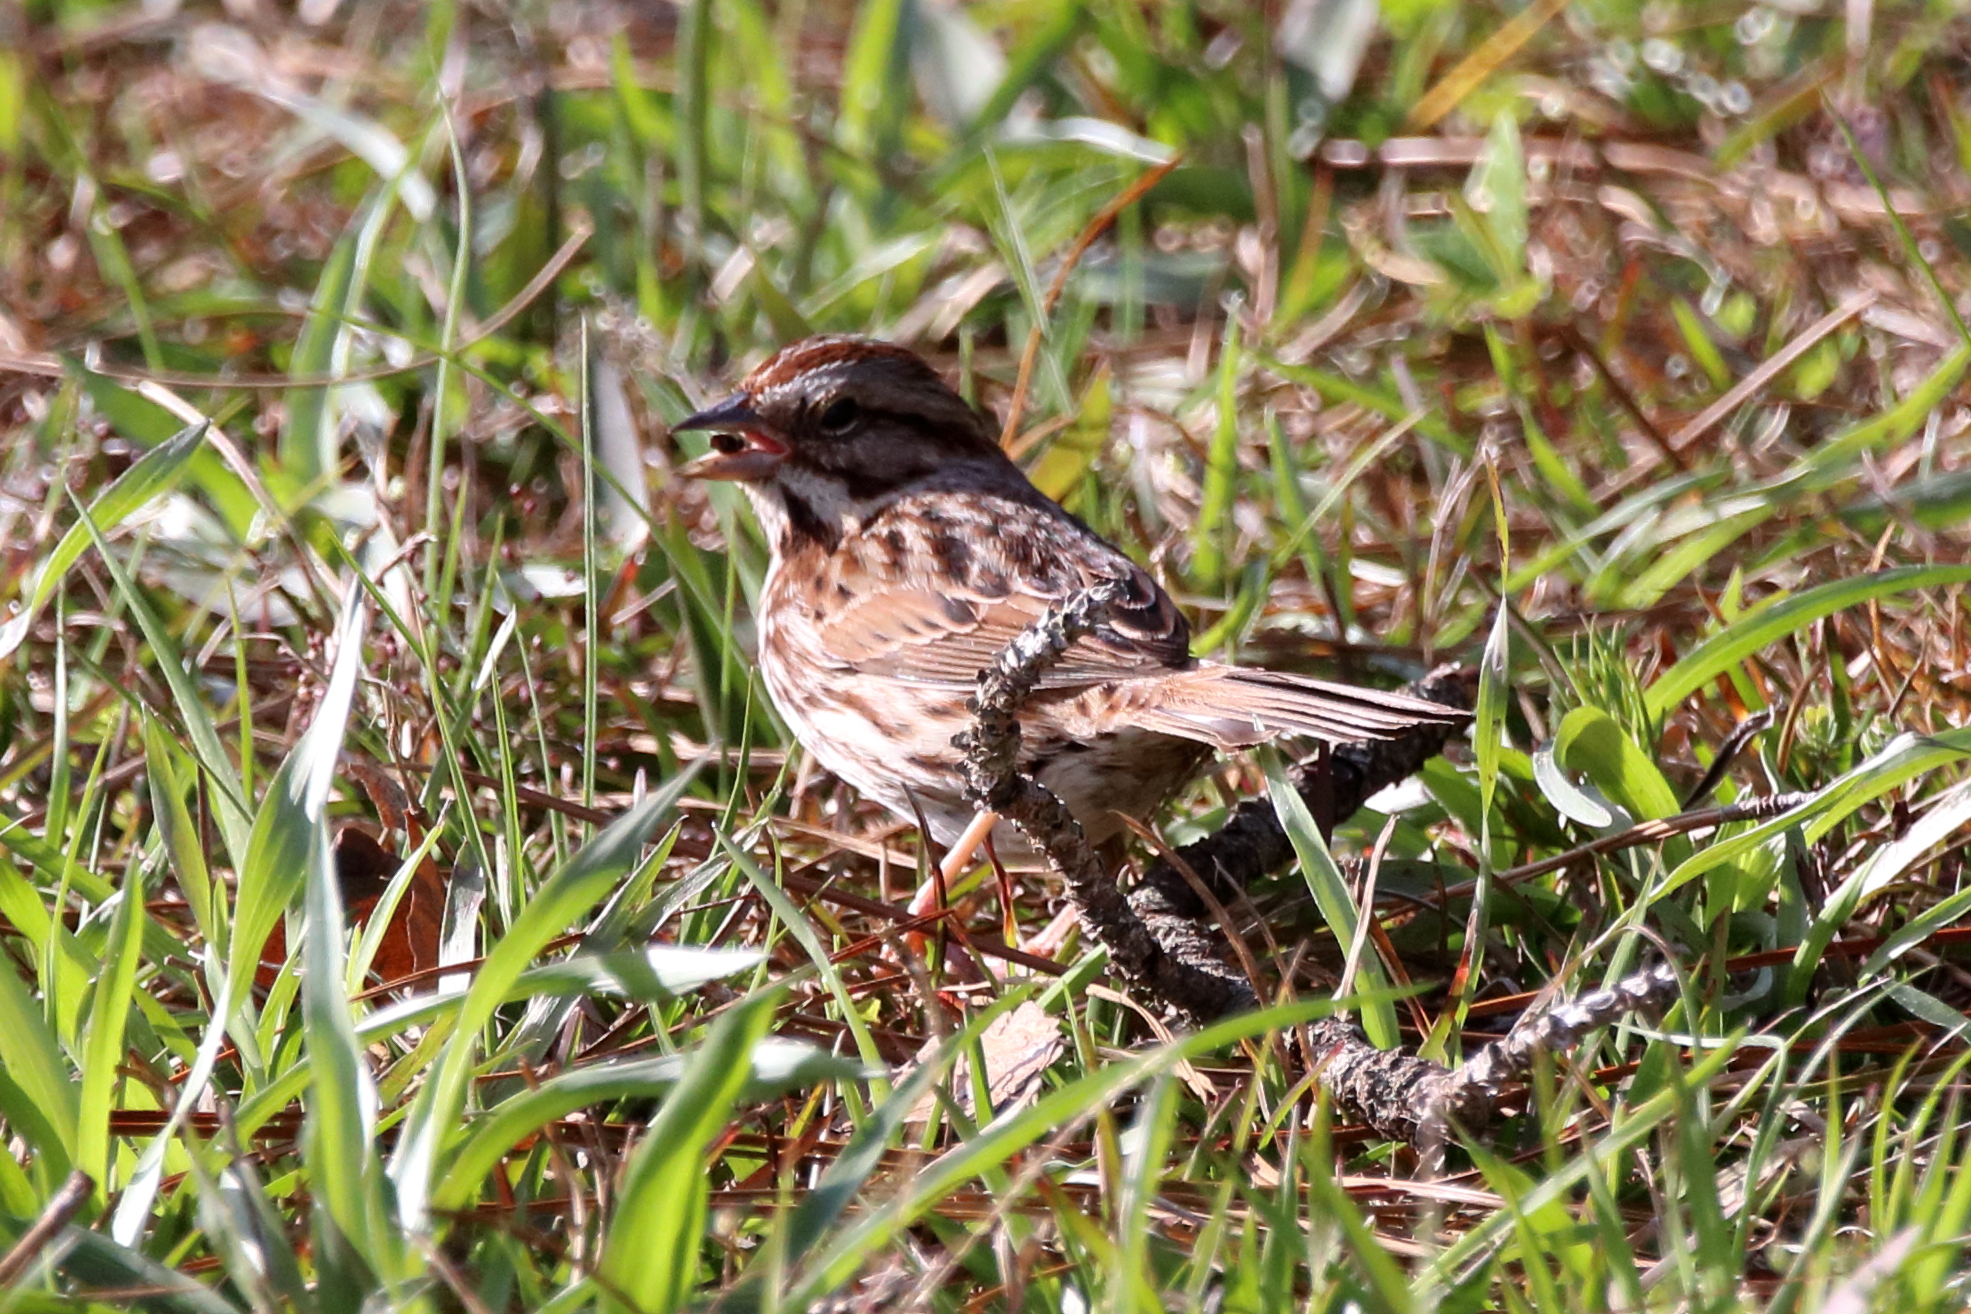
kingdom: Animalia
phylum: Chordata
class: Aves
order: Passeriformes
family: Passerellidae
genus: Melospiza
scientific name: Melospiza melodia
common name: Song sparrow
